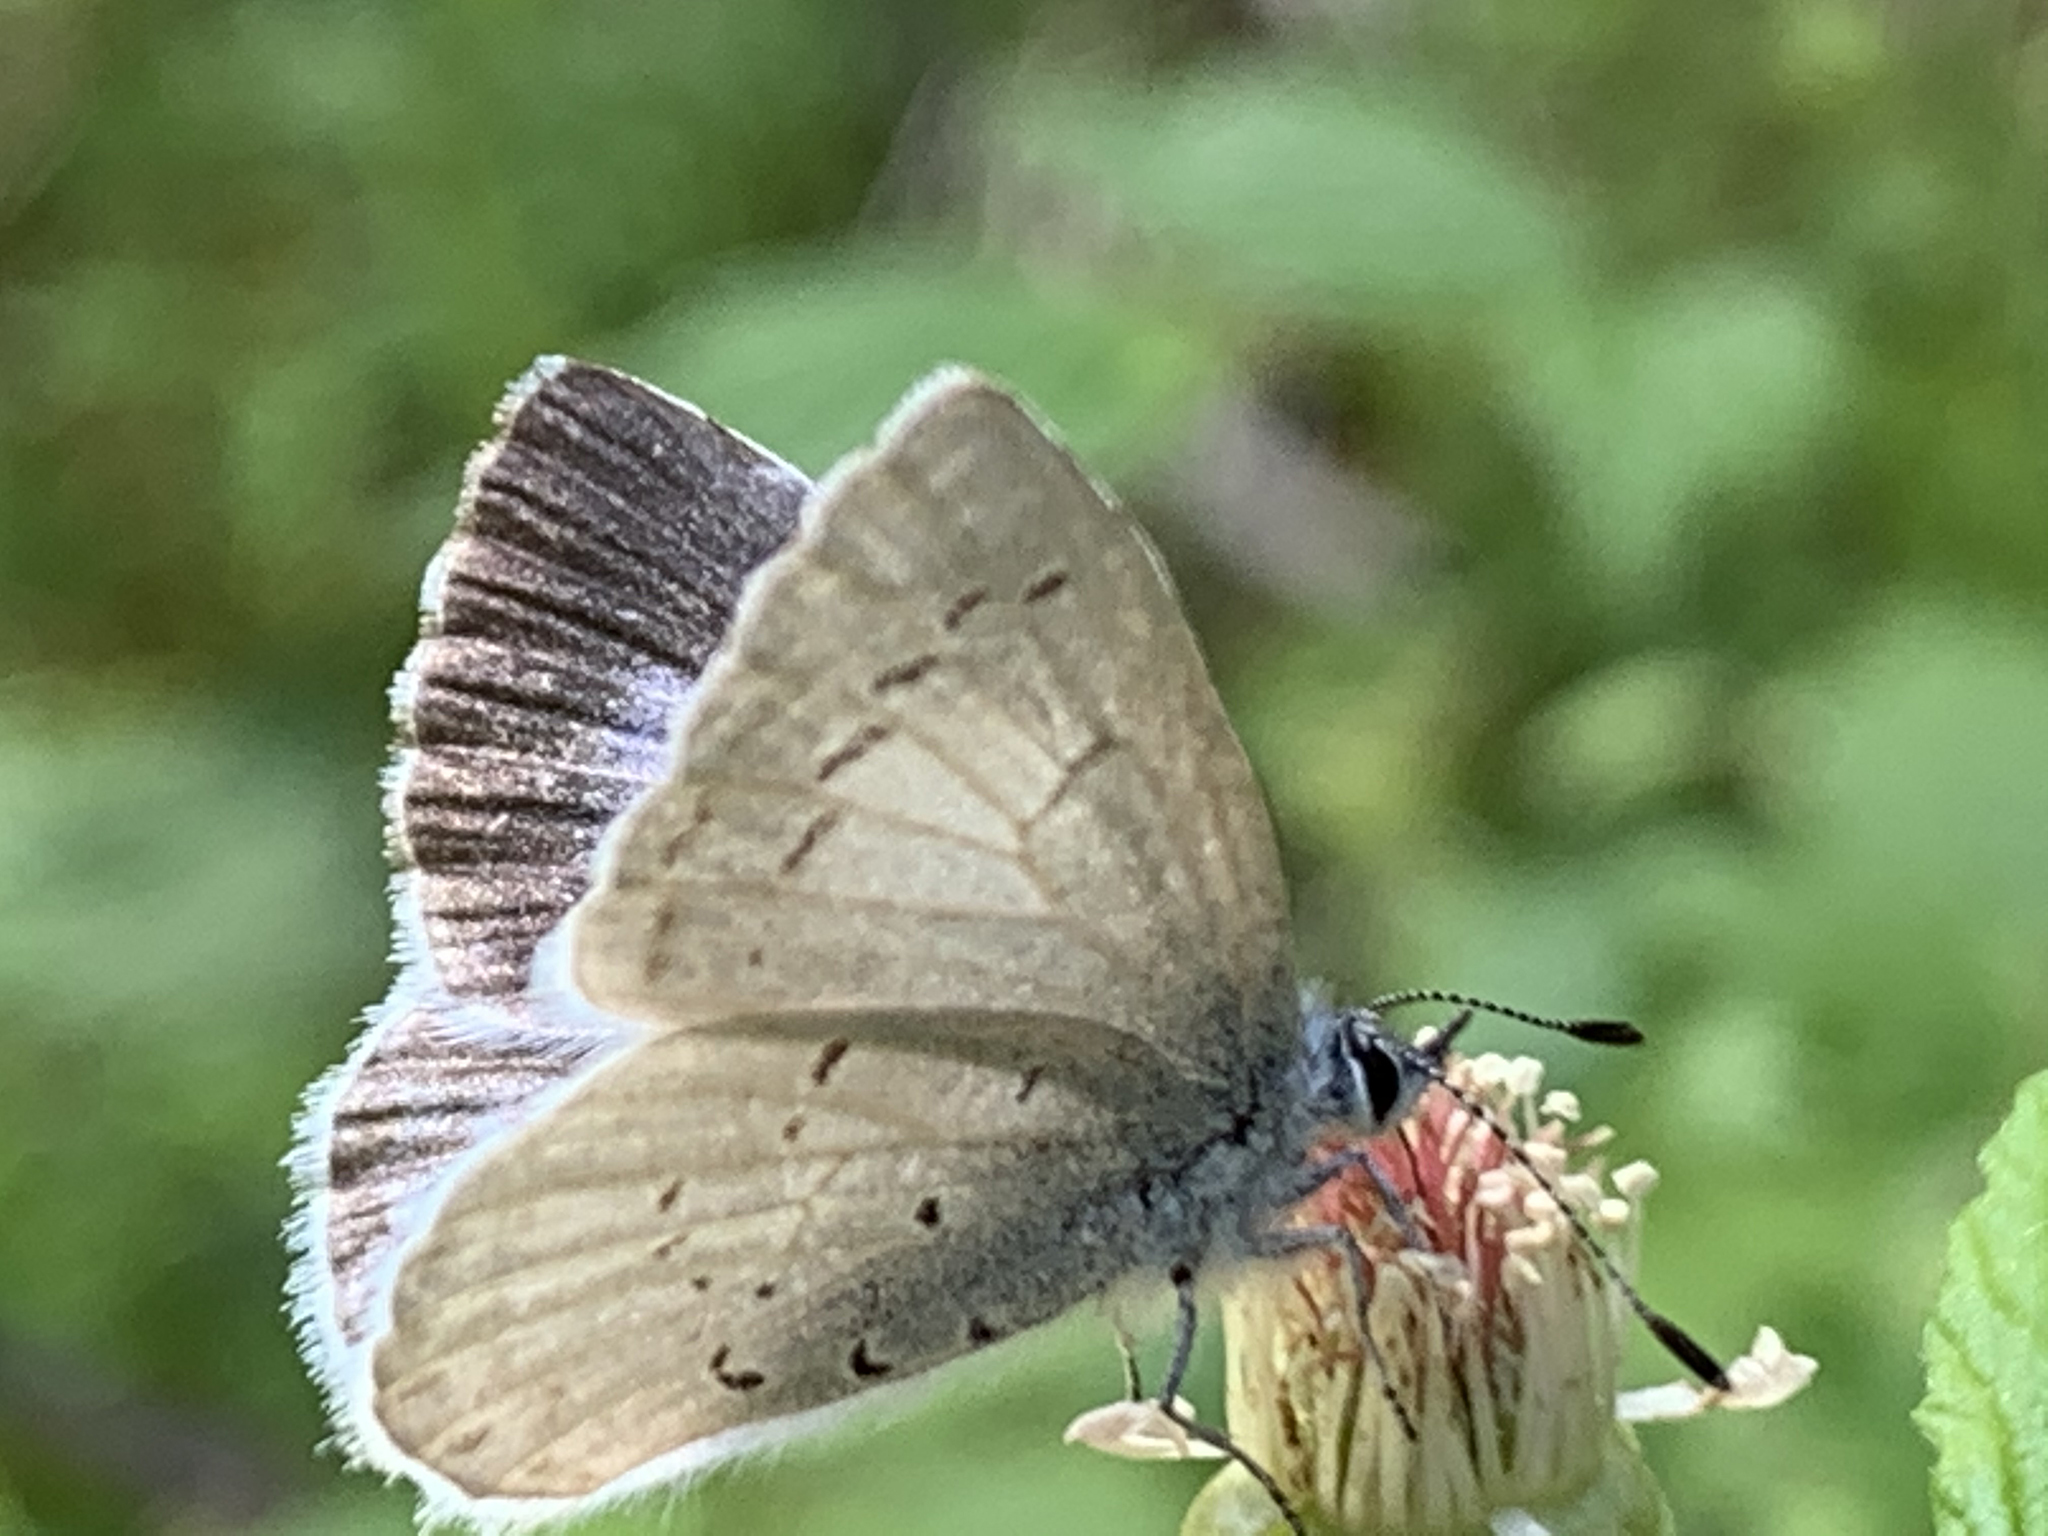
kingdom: Animalia
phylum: Arthropoda
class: Insecta
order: Lepidoptera
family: Lycaenidae
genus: Celastrina
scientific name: Celastrina ladon
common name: Spring azure
